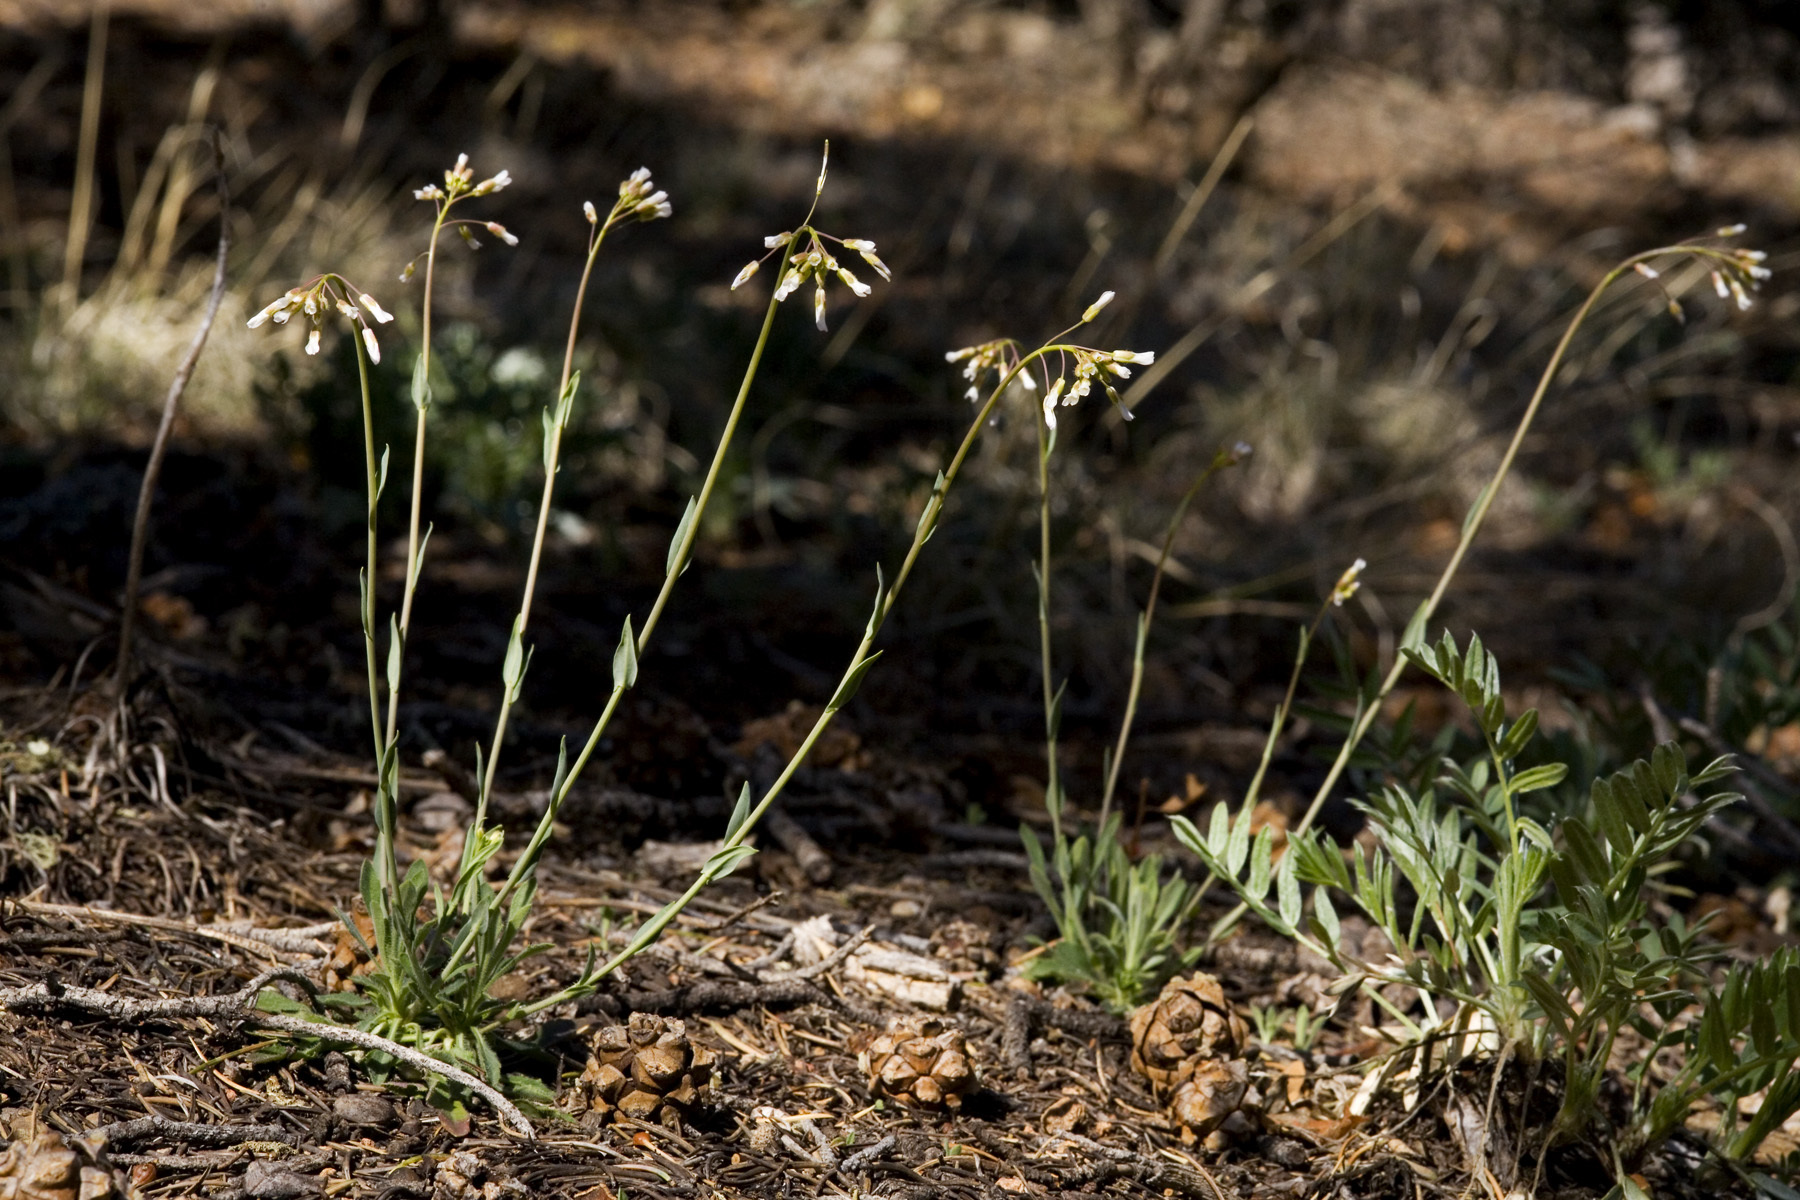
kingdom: Plantae
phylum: Tracheophyta
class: Magnoliopsida
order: Brassicales
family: Brassicaceae
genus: Boechera
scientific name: Boechera fendleri
